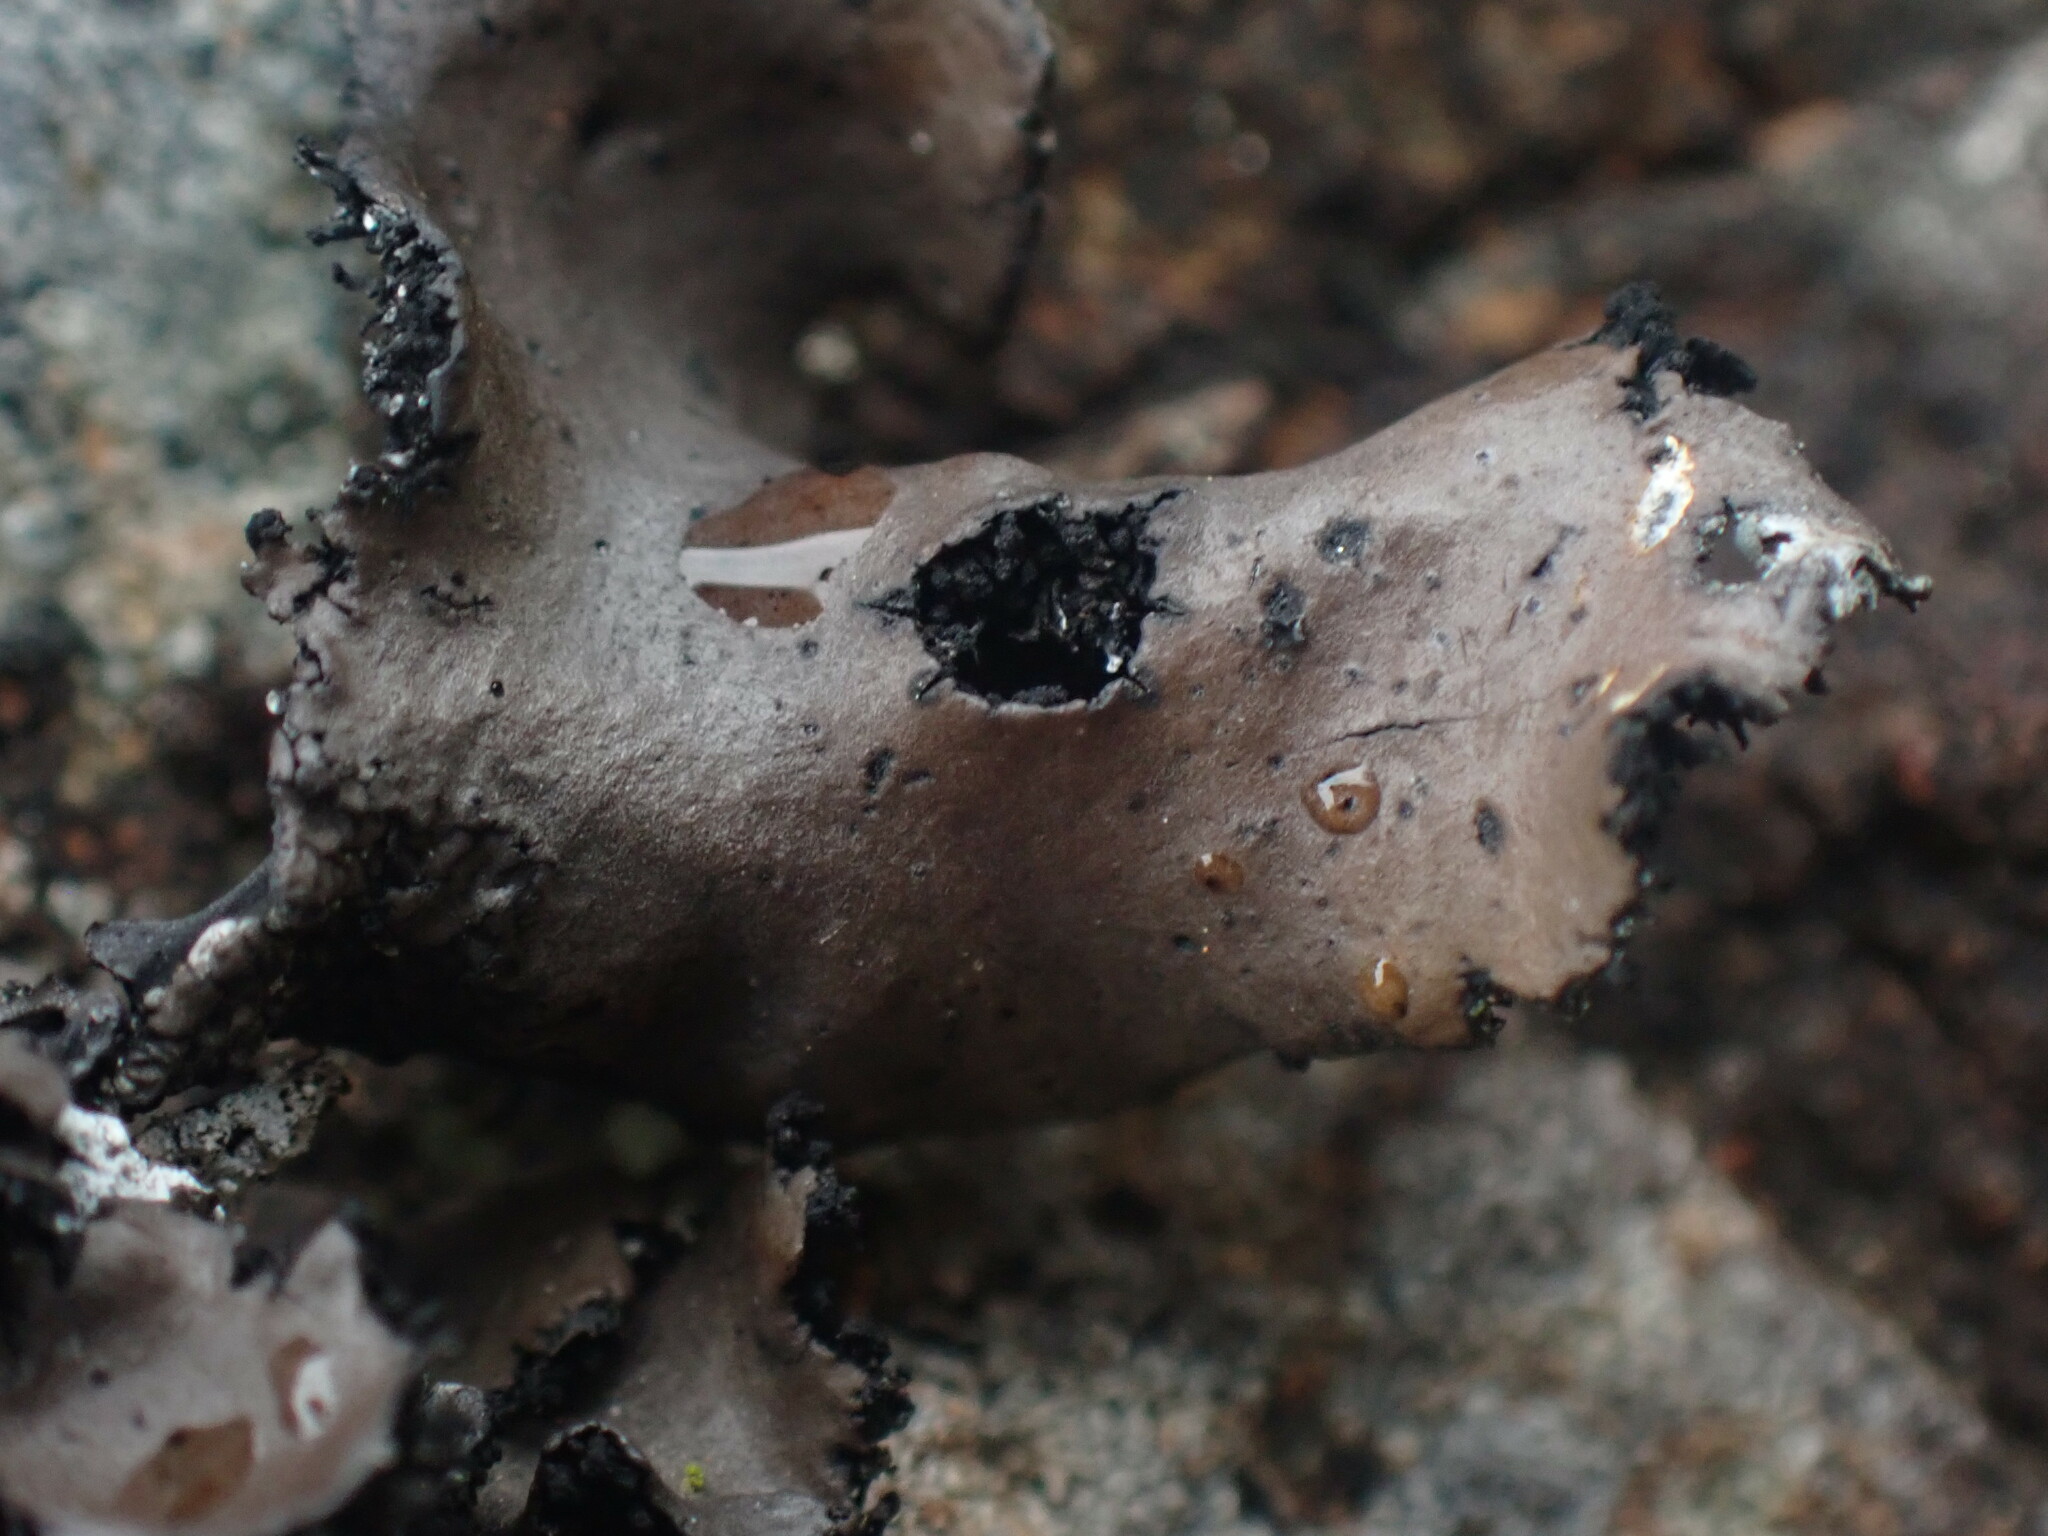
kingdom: Fungi
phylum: Ascomycota
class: Lecanoromycetes
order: Umbilicariales
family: Umbilicariaceae
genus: Umbilicaria
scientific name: Umbilicaria polyrrhiza
